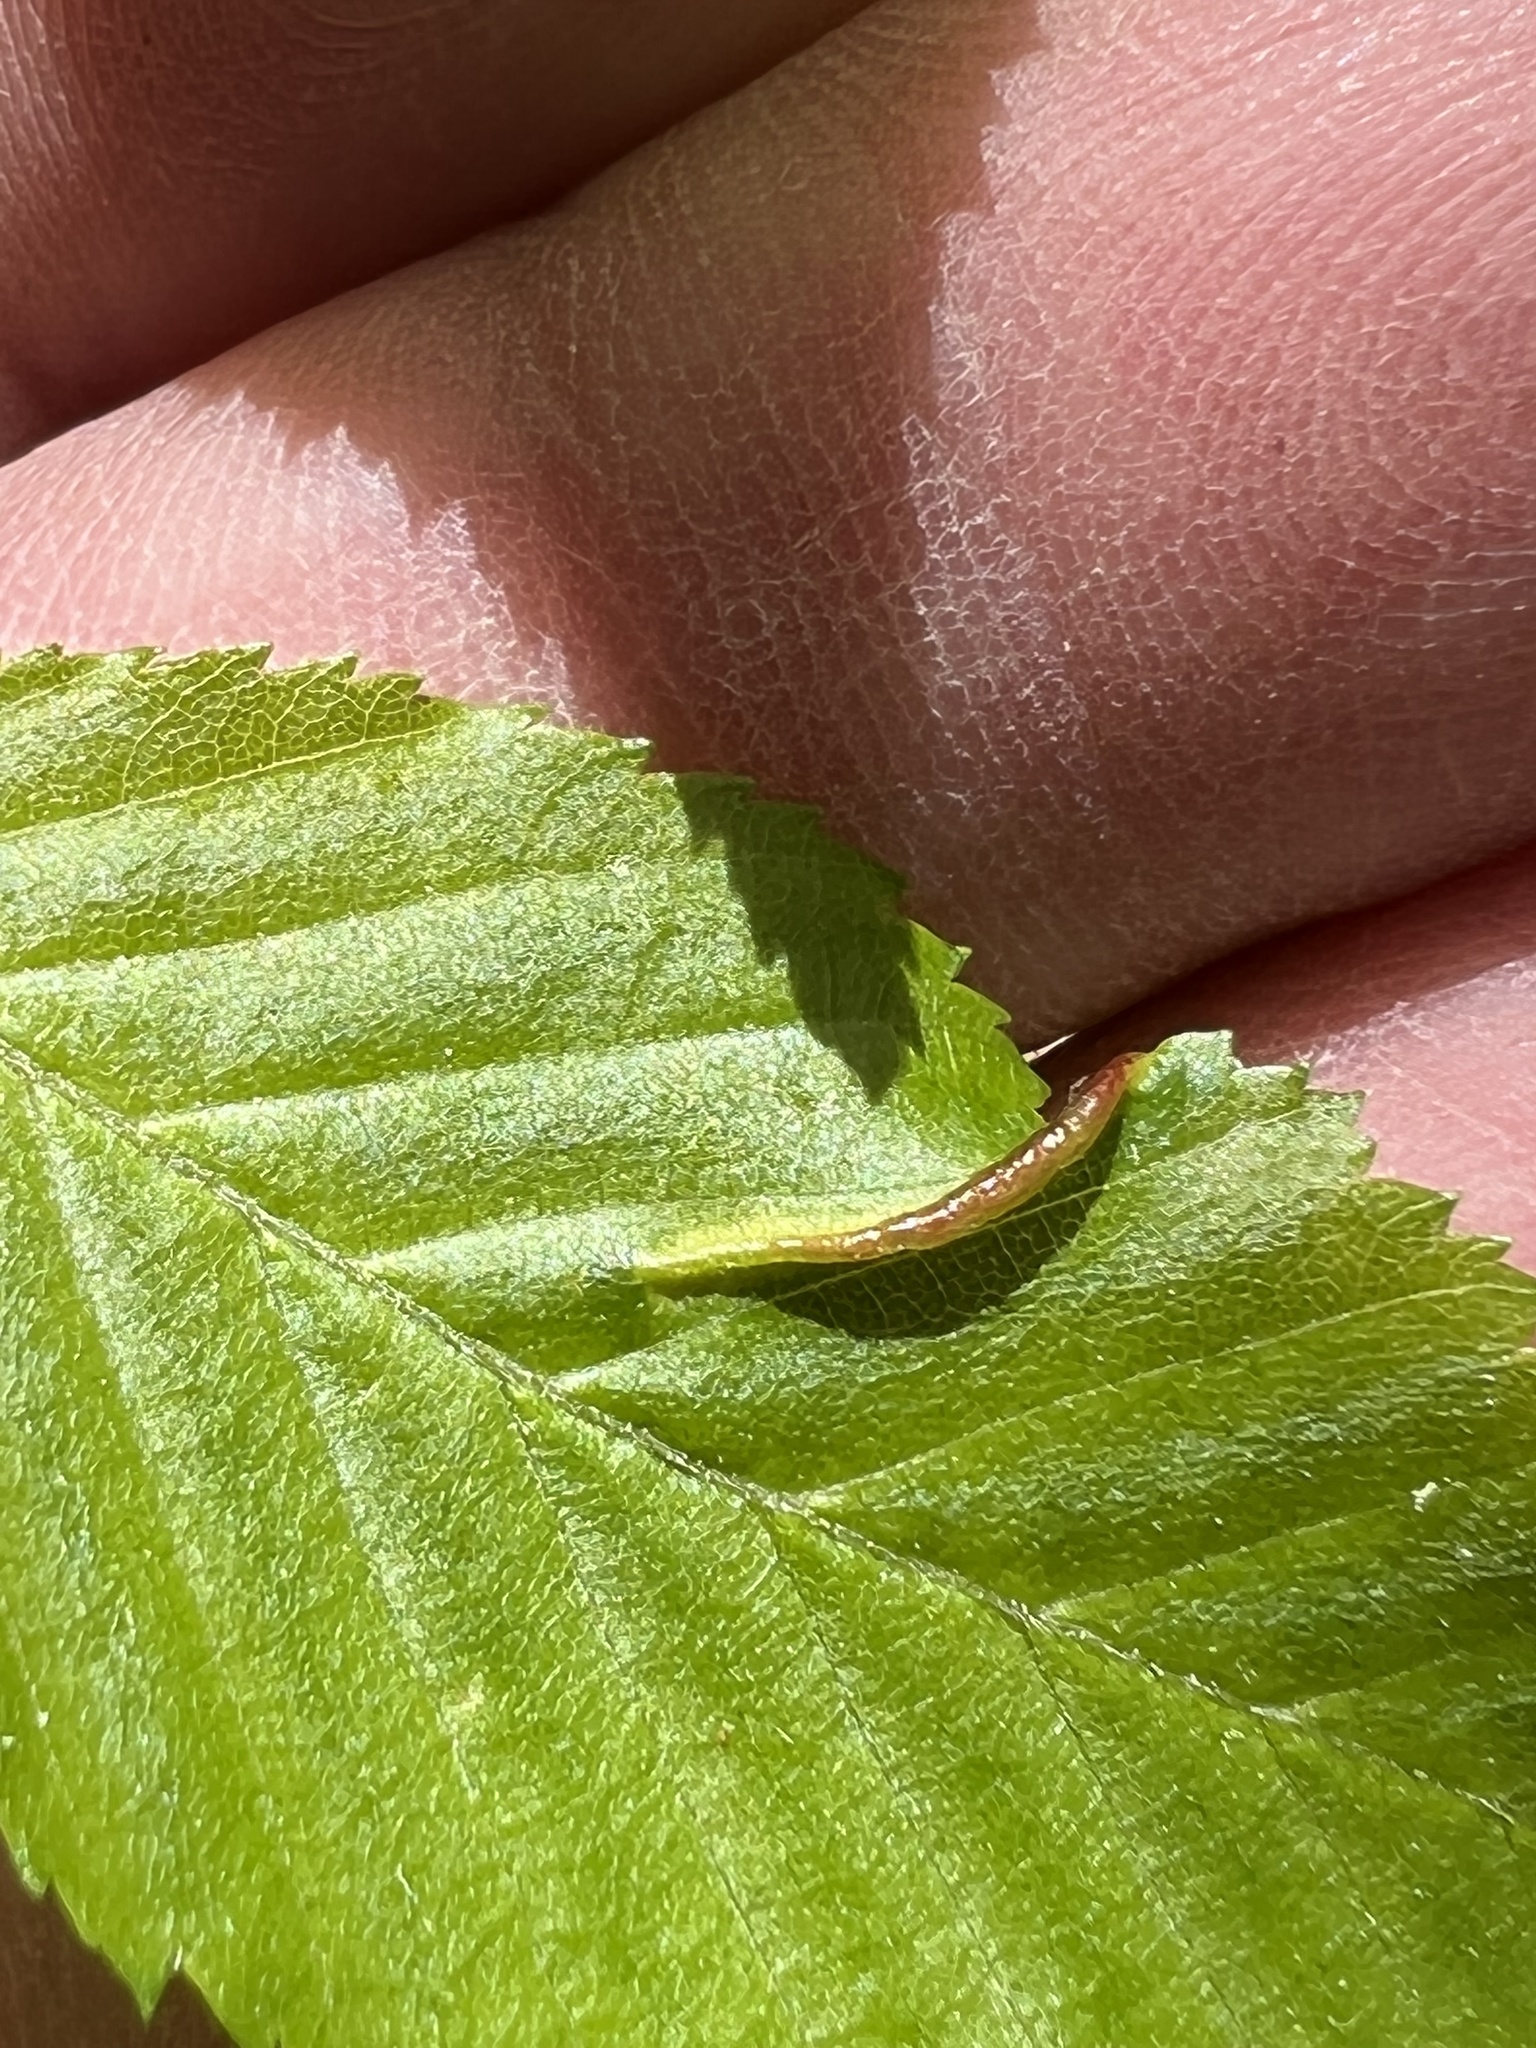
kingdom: Animalia
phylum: Arthropoda
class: Insecta
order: Diptera
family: Cecidomyiidae
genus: Dasineura
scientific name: Dasineura pudibunda
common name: Hornbeam leaf gall midge
